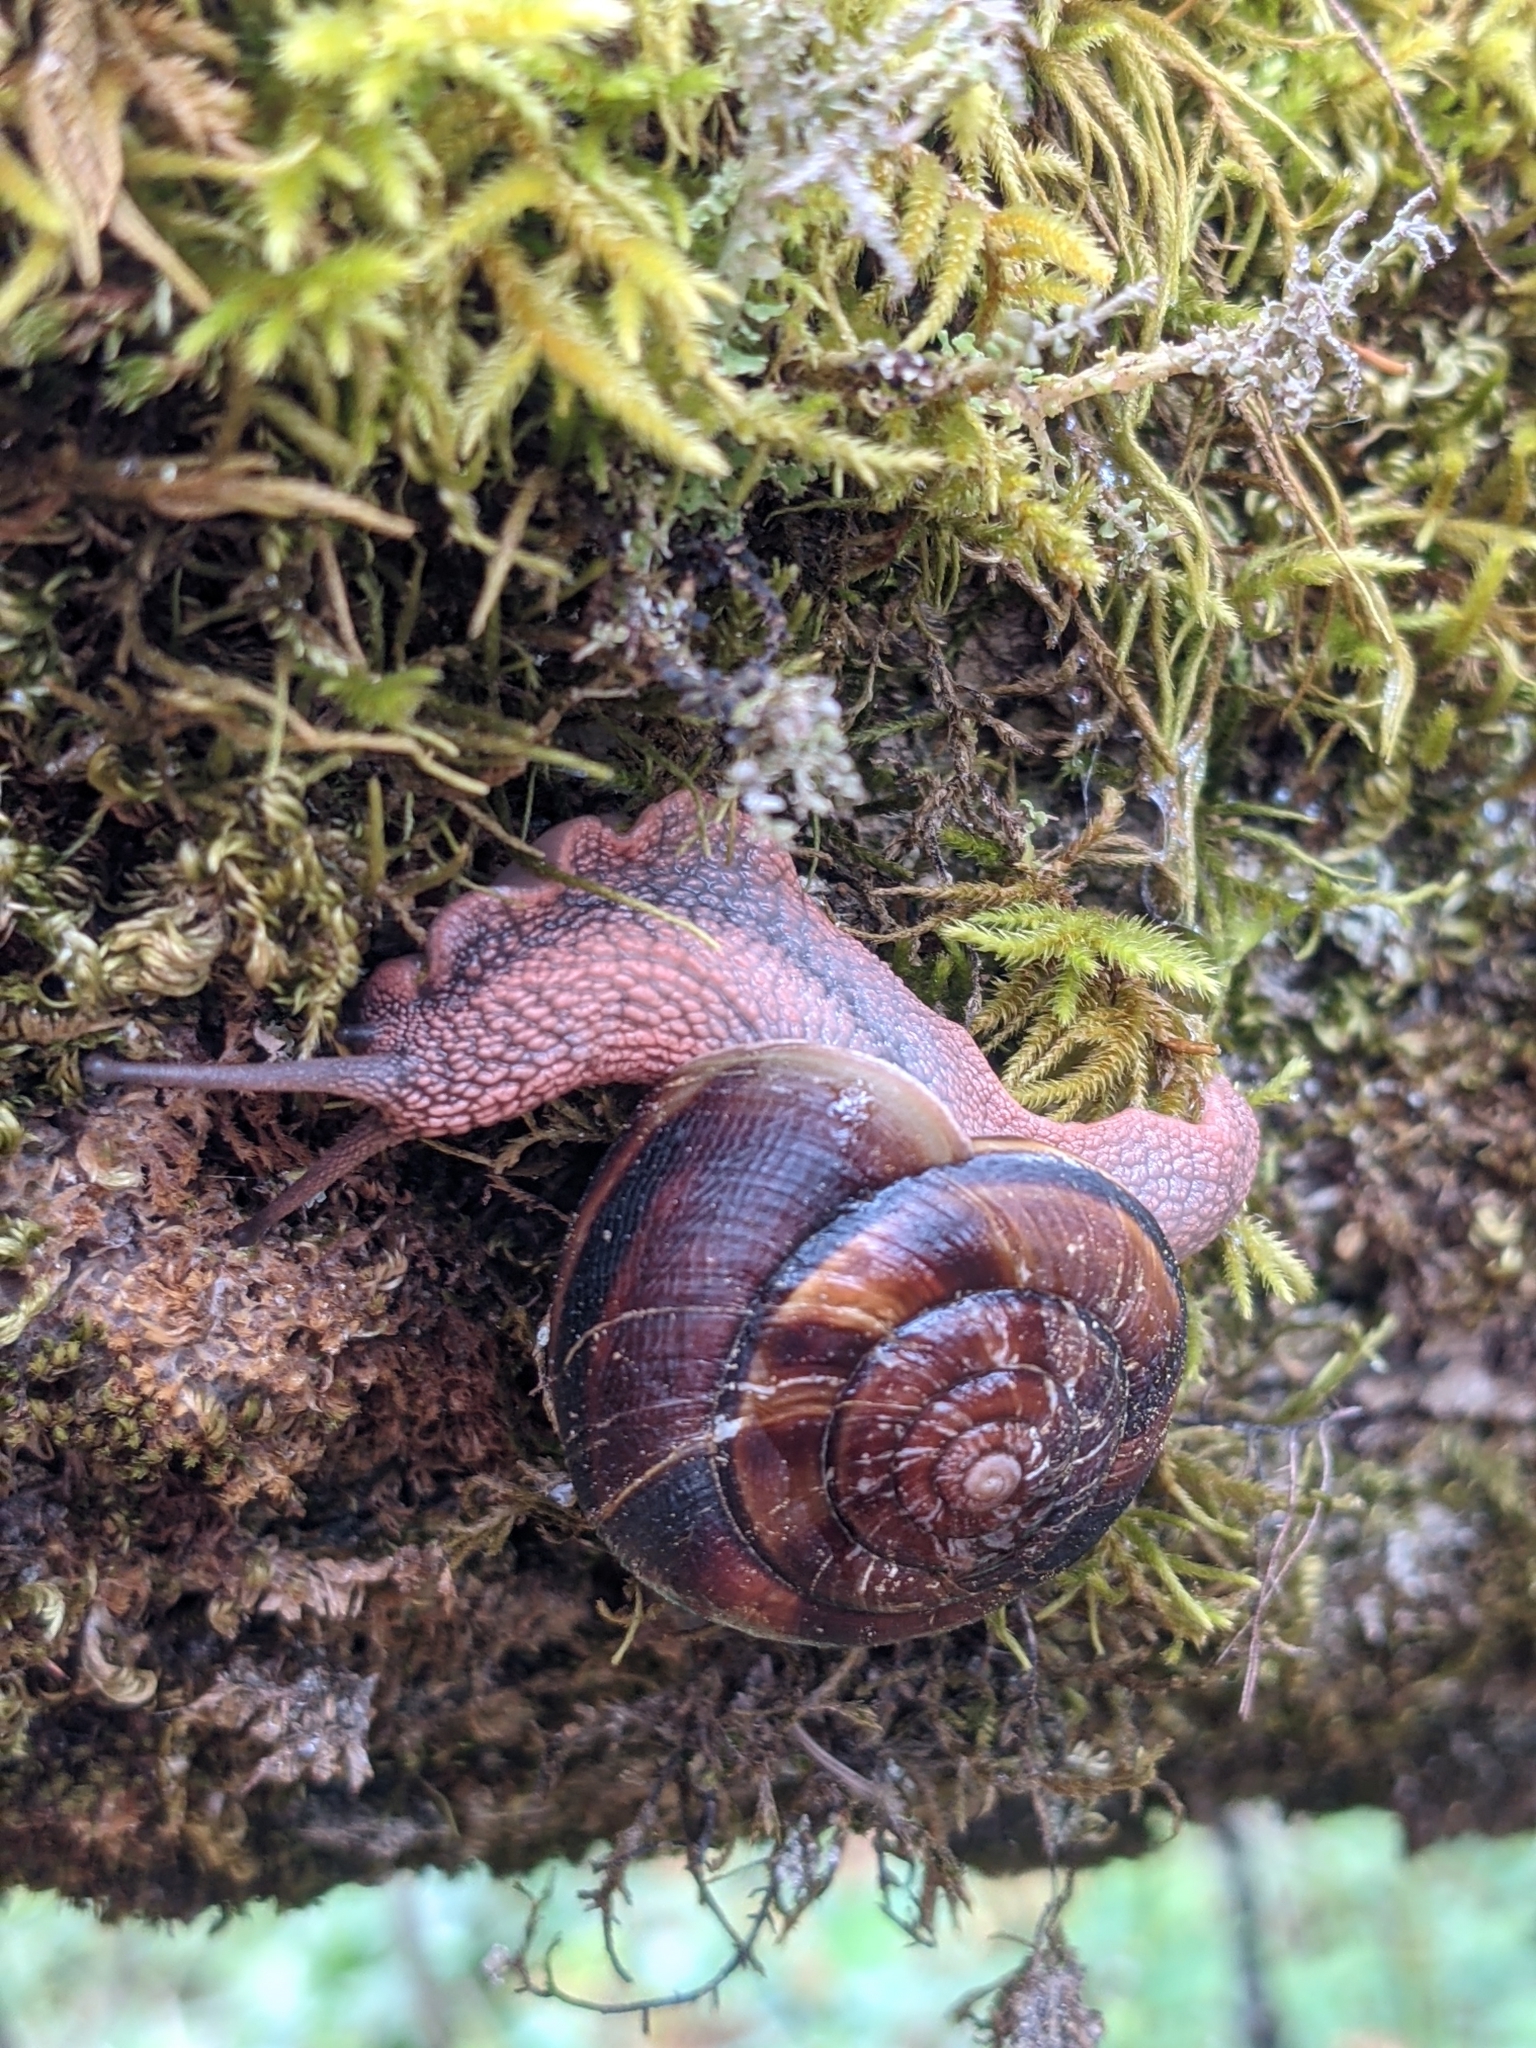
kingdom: Animalia
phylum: Mollusca
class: Gastropoda
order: Stylommatophora
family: Xanthonychidae
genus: Monadenia
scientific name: Monadenia fidelis
